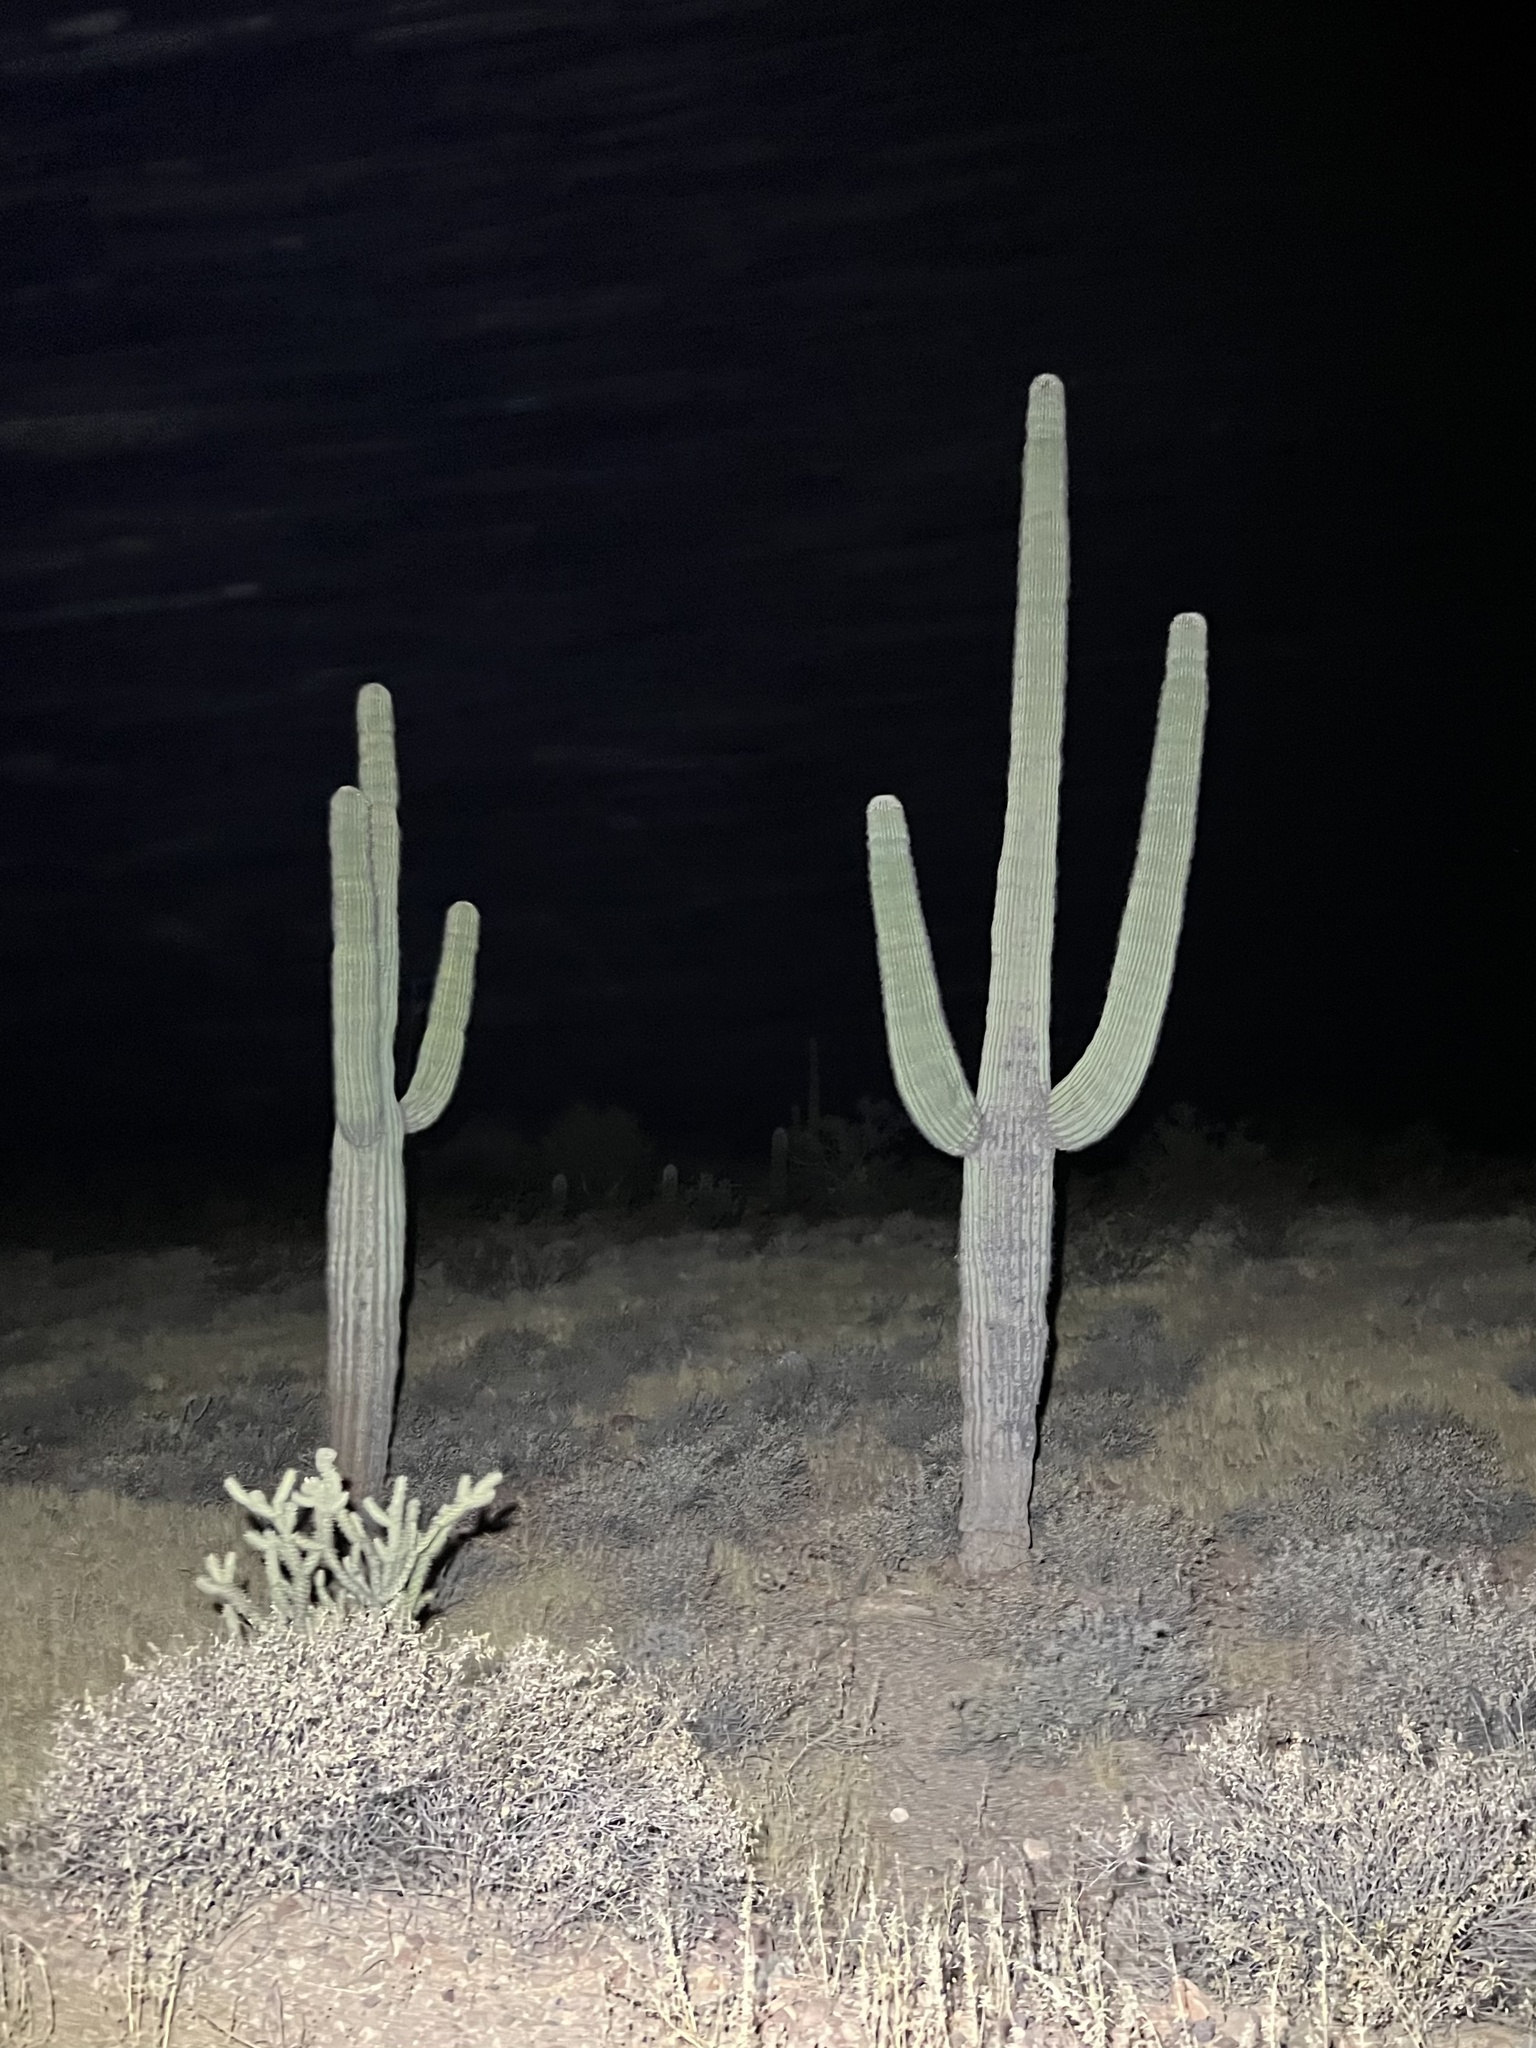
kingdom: Plantae
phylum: Tracheophyta
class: Magnoliopsida
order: Caryophyllales
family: Cactaceae
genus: Carnegiea
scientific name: Carnegiea gigantea
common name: Saguaro
